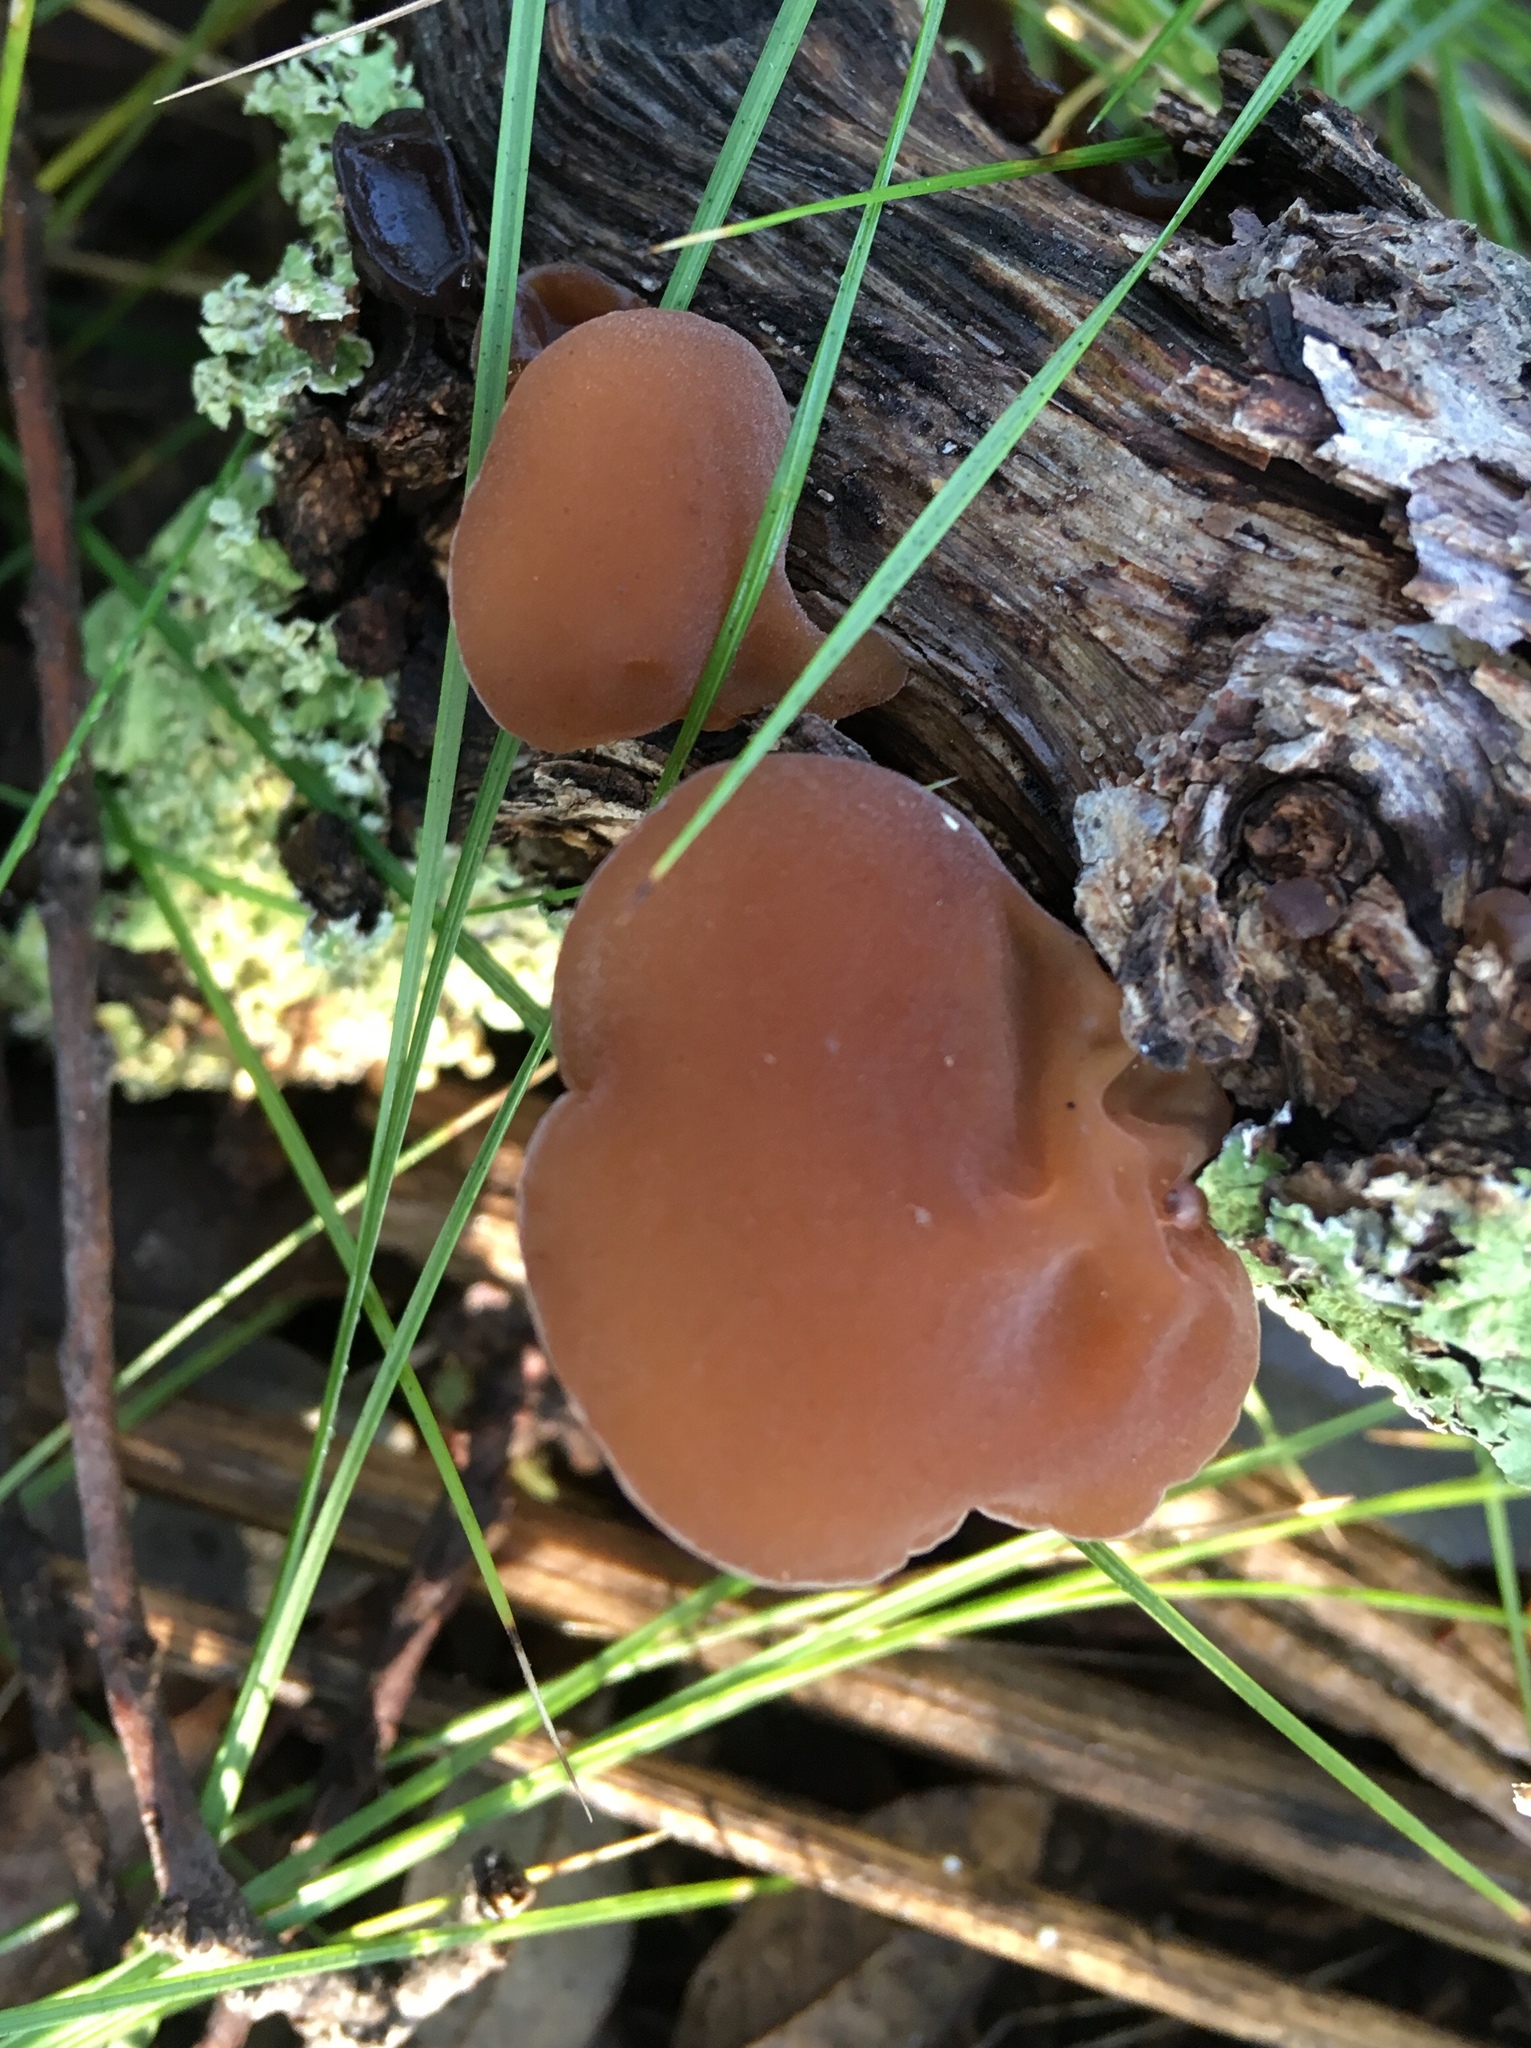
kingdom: Fungi
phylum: Basidiomycota
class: Agaricomycetes
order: Auriculariales
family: Auriculariaceae
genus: Auricularia
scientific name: Auricularia americana
